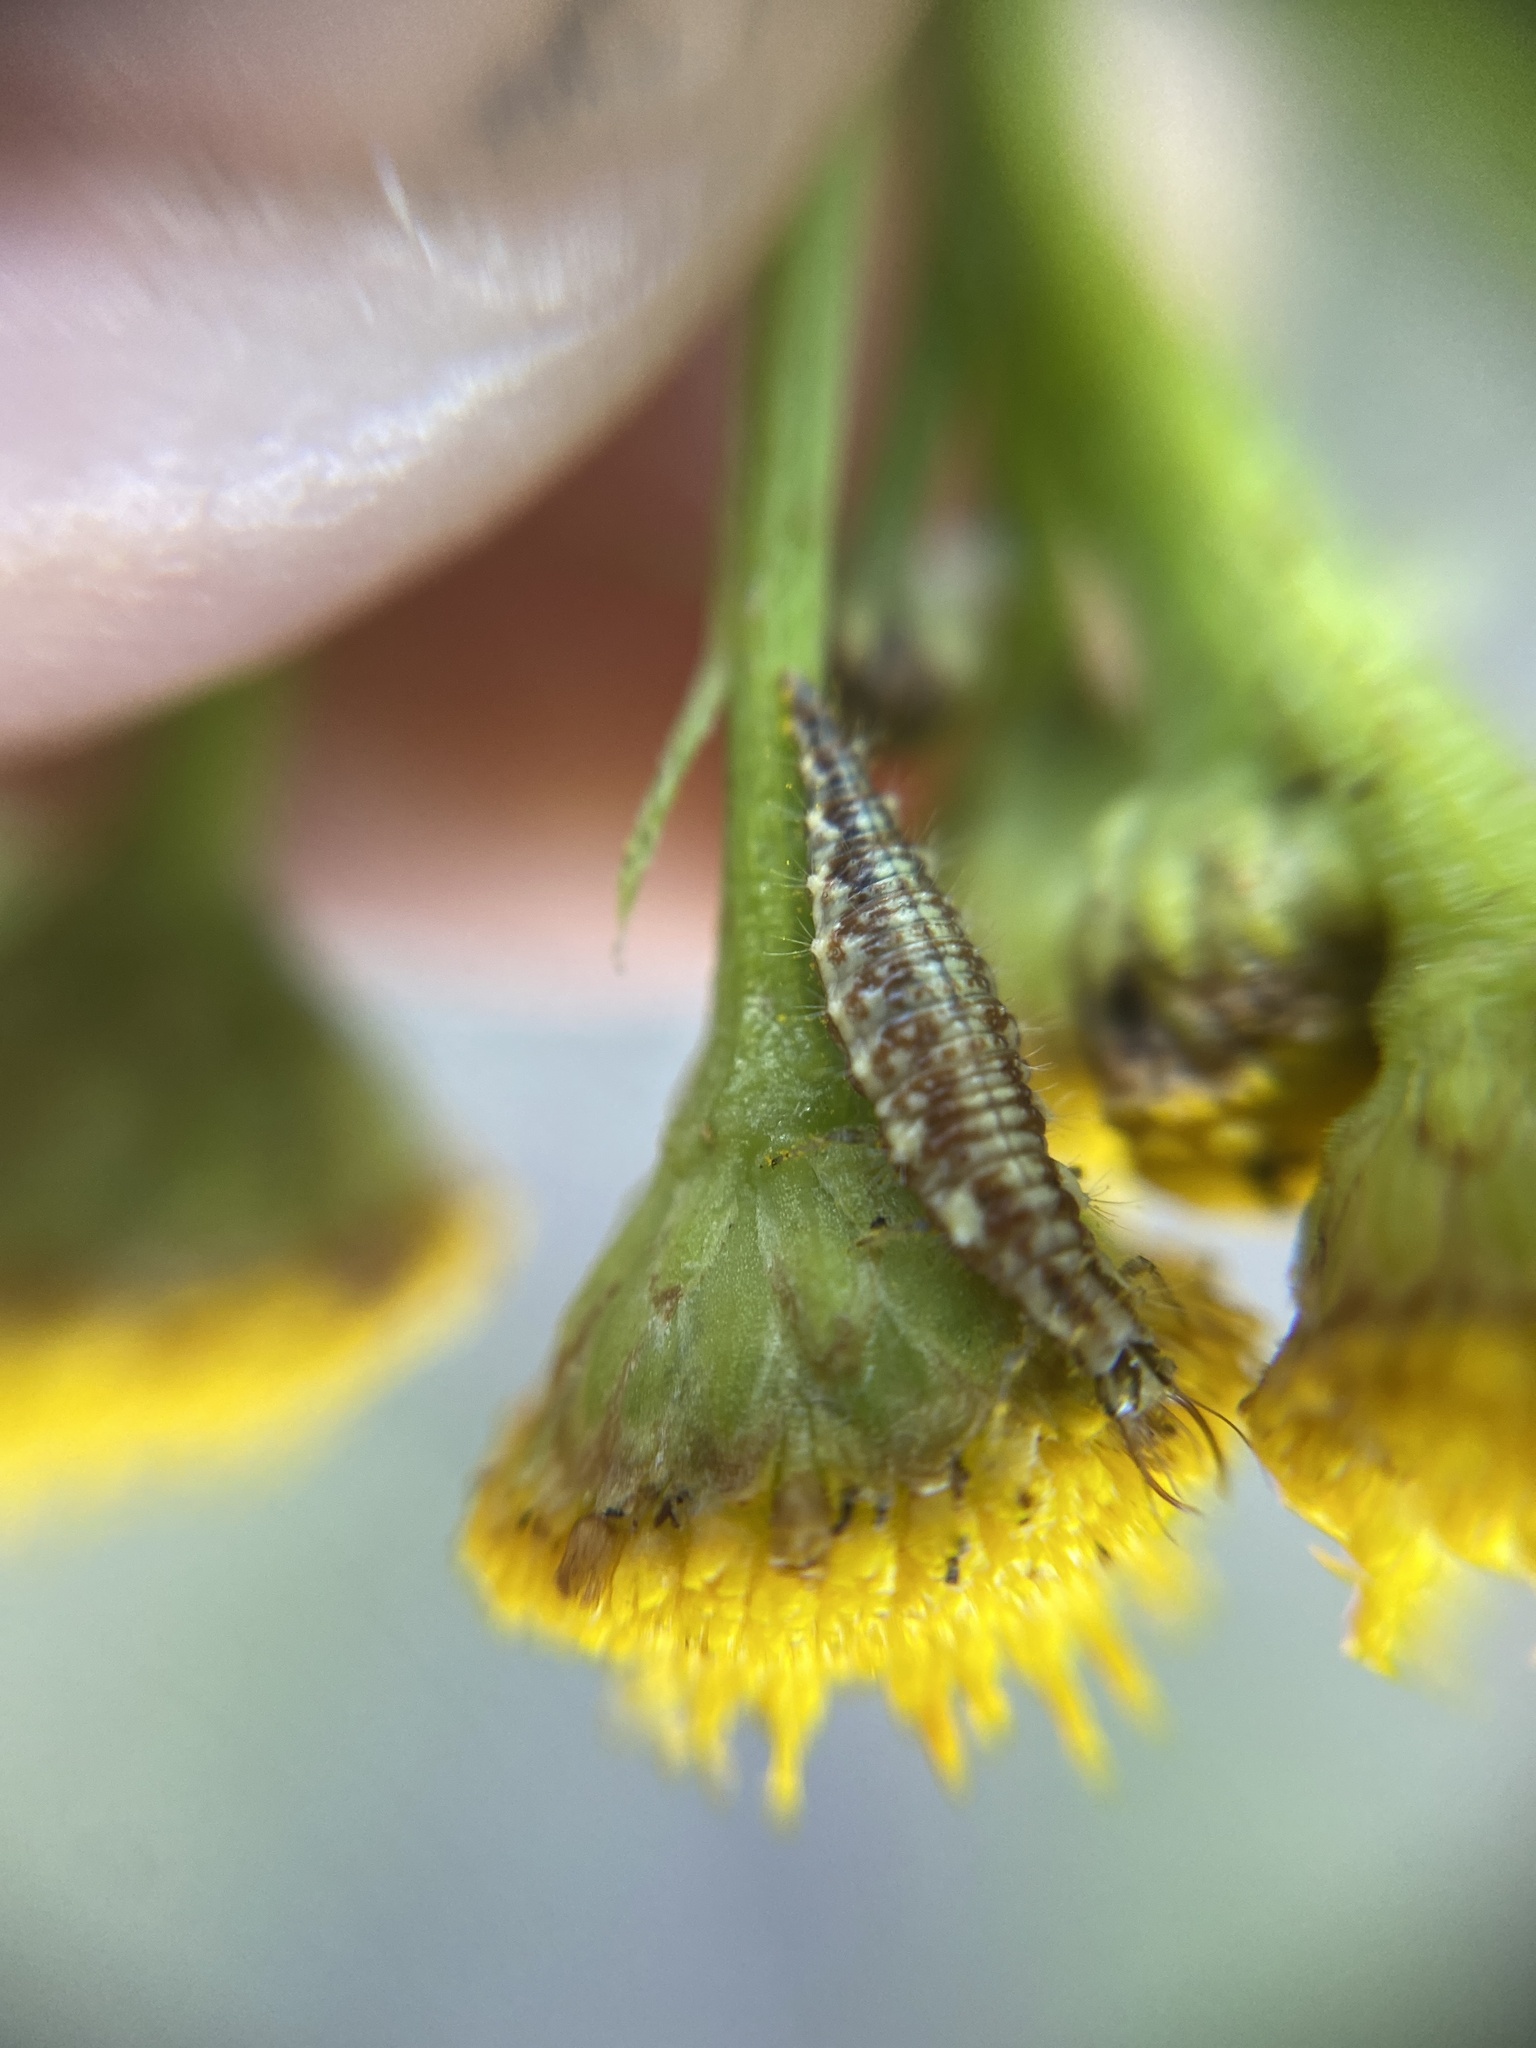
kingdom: Animalia
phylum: Arthropoda
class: Insecta
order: Neuroptera
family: Chrysopidae
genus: Chrysoperla
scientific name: Chrysoperla
